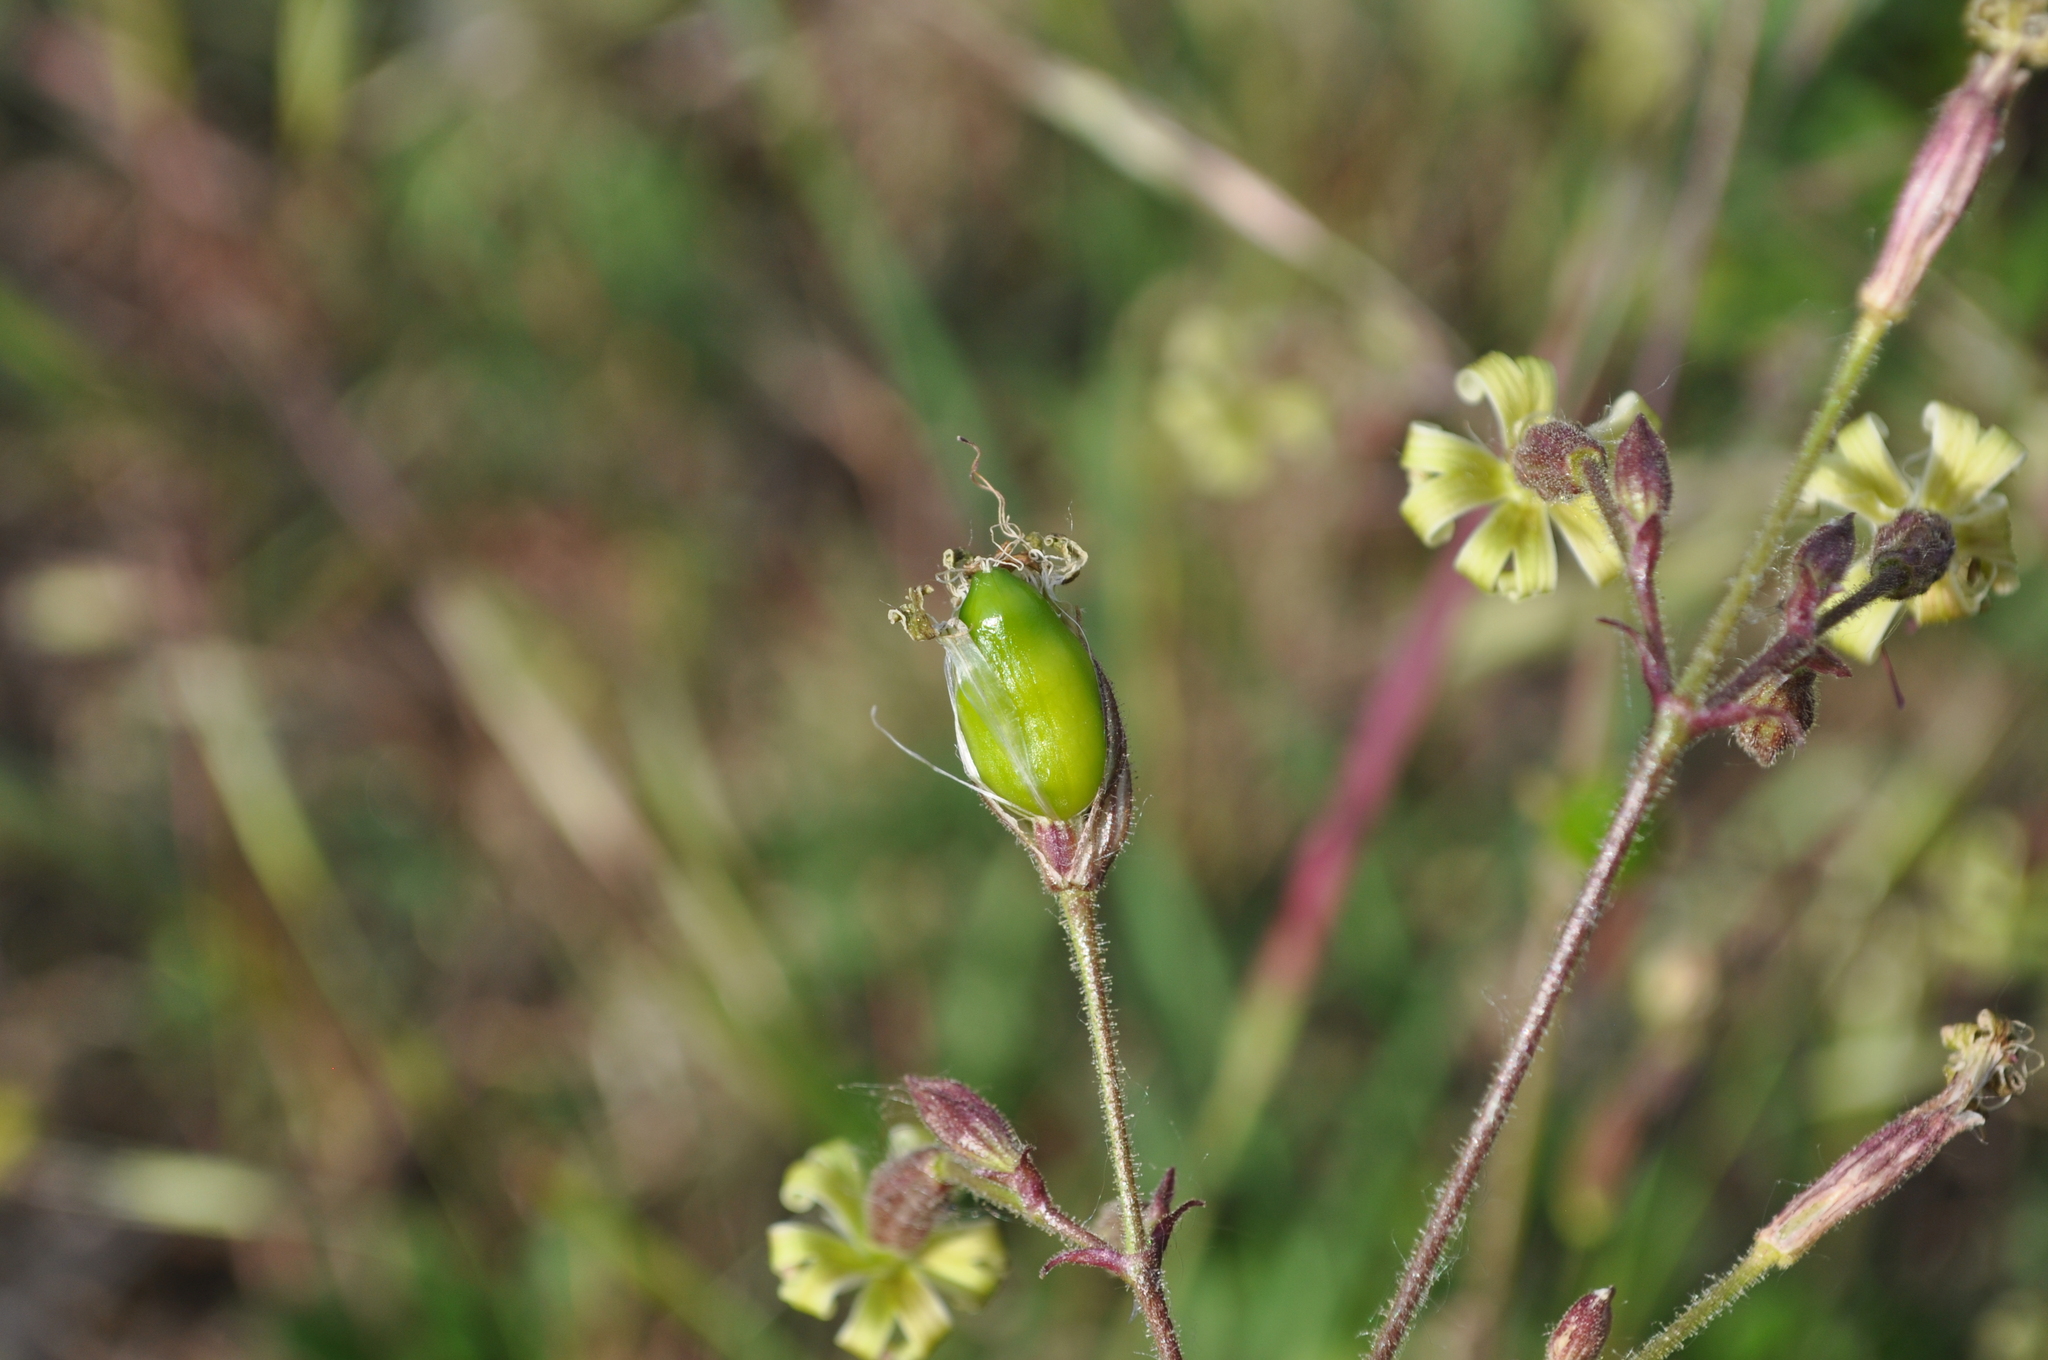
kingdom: Plantae
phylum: Tracheophyta
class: Magnoliopsida
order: Caryophyllales
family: Caryophyllaceae
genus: Silene
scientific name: Silene nutans
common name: Nottingham catchfly
